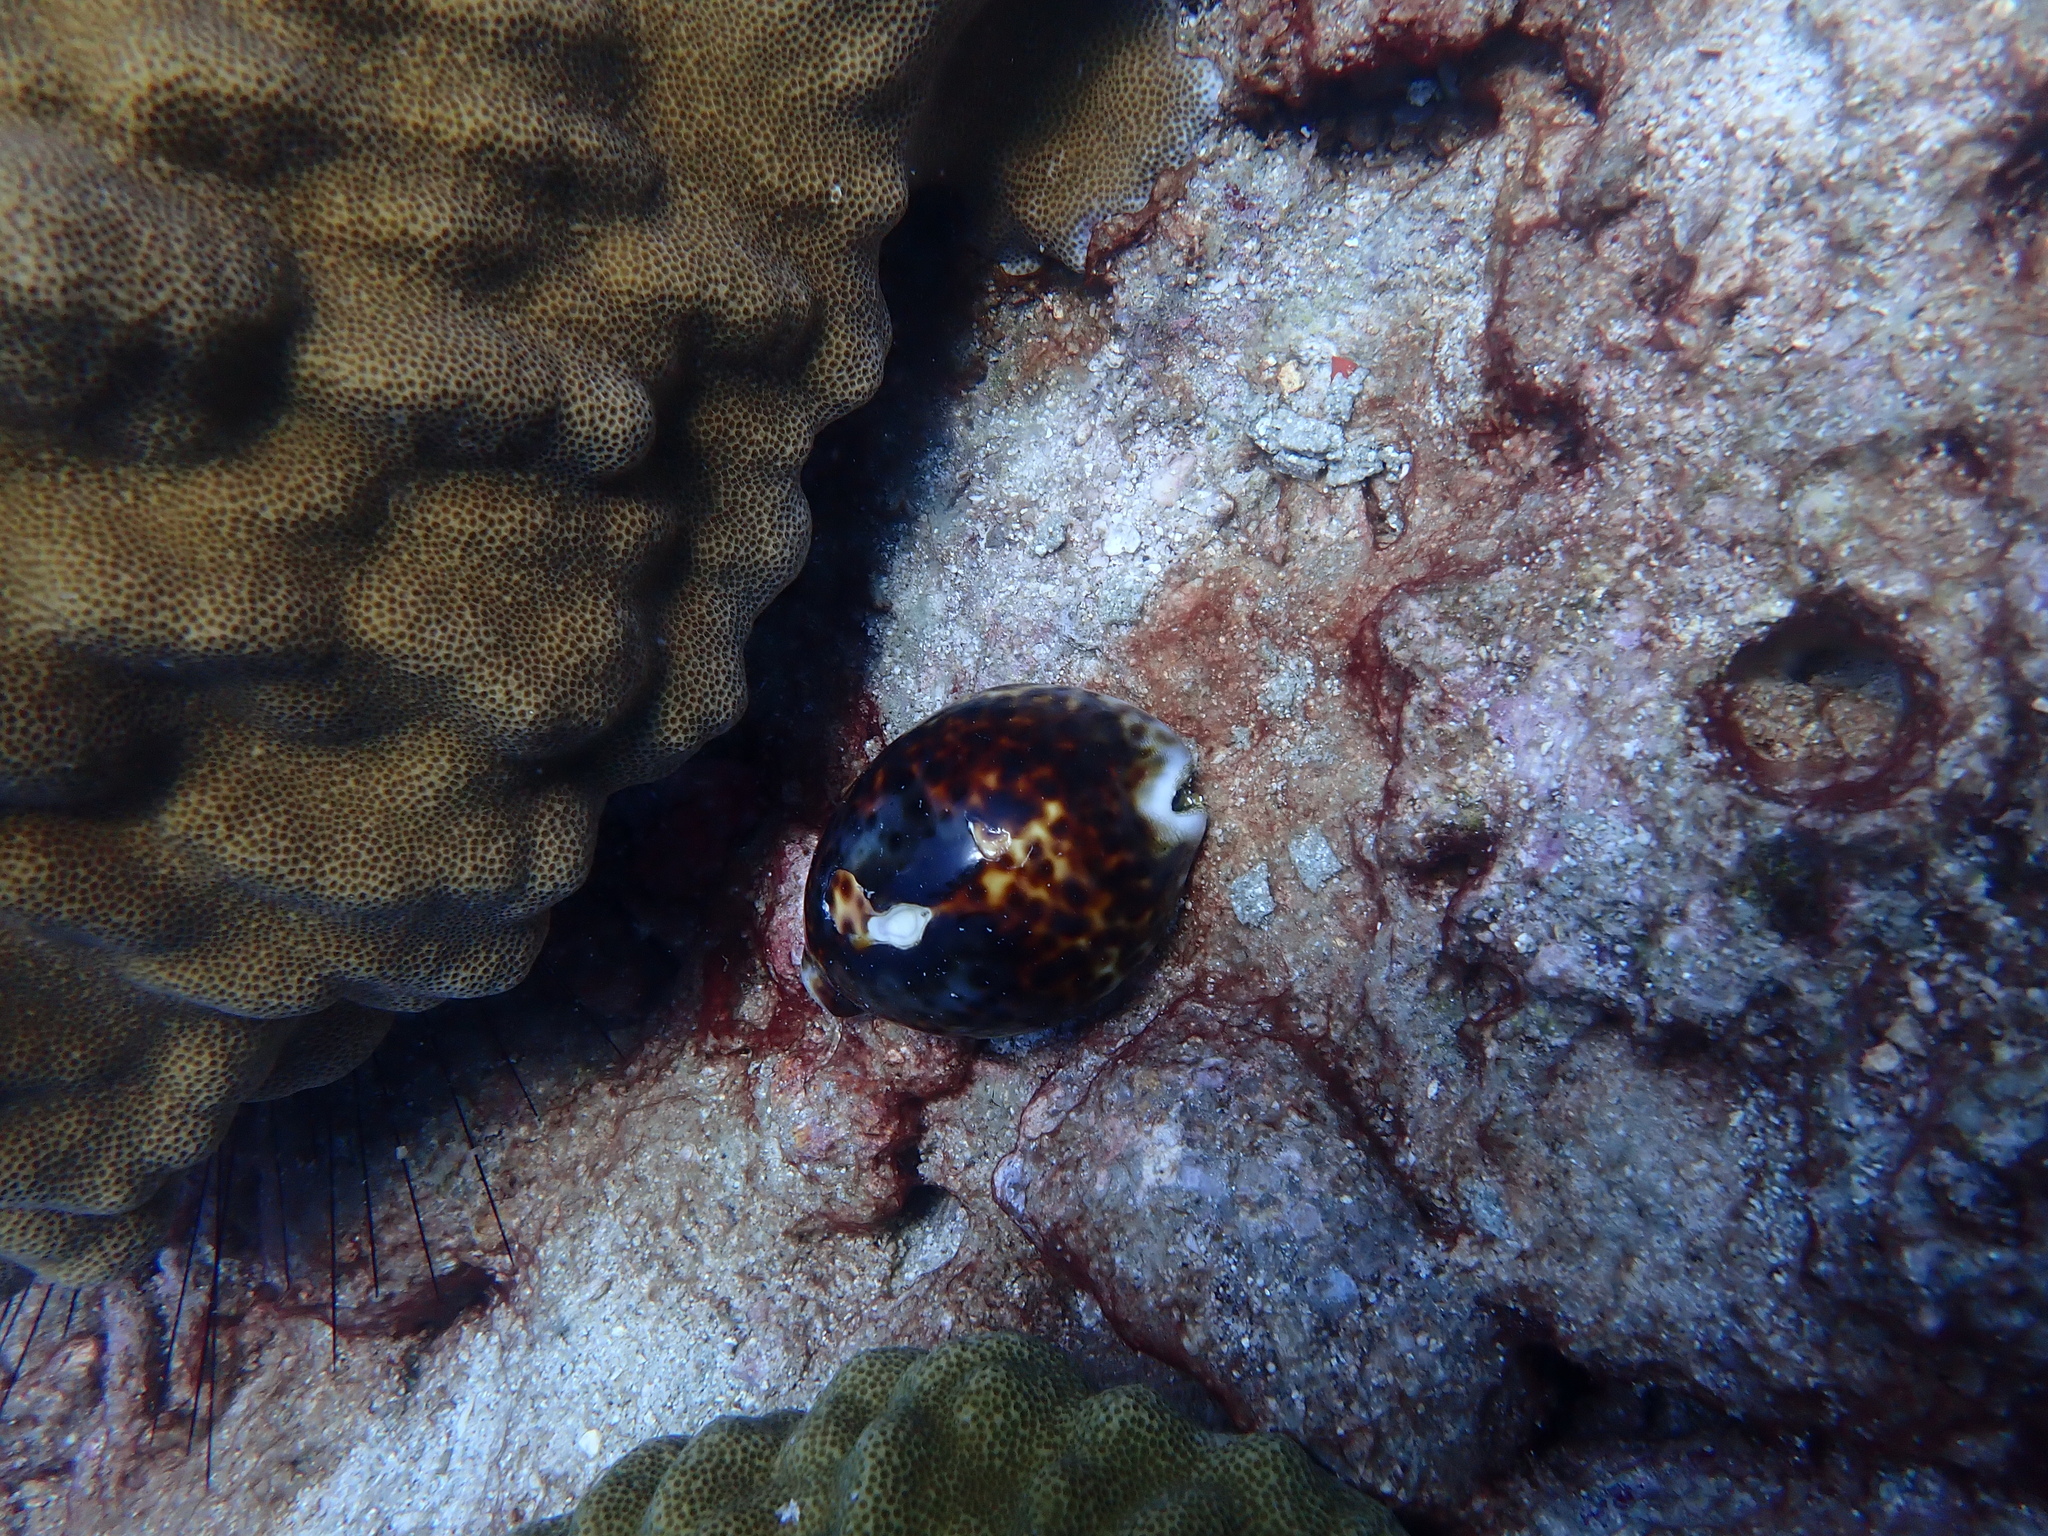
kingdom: Animalia
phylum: Mollusca
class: Gastropoda
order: Littorinimorpha
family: Cypraeidae
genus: Cypraea
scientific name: Cypraea tigris
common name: Tiger cowrie
